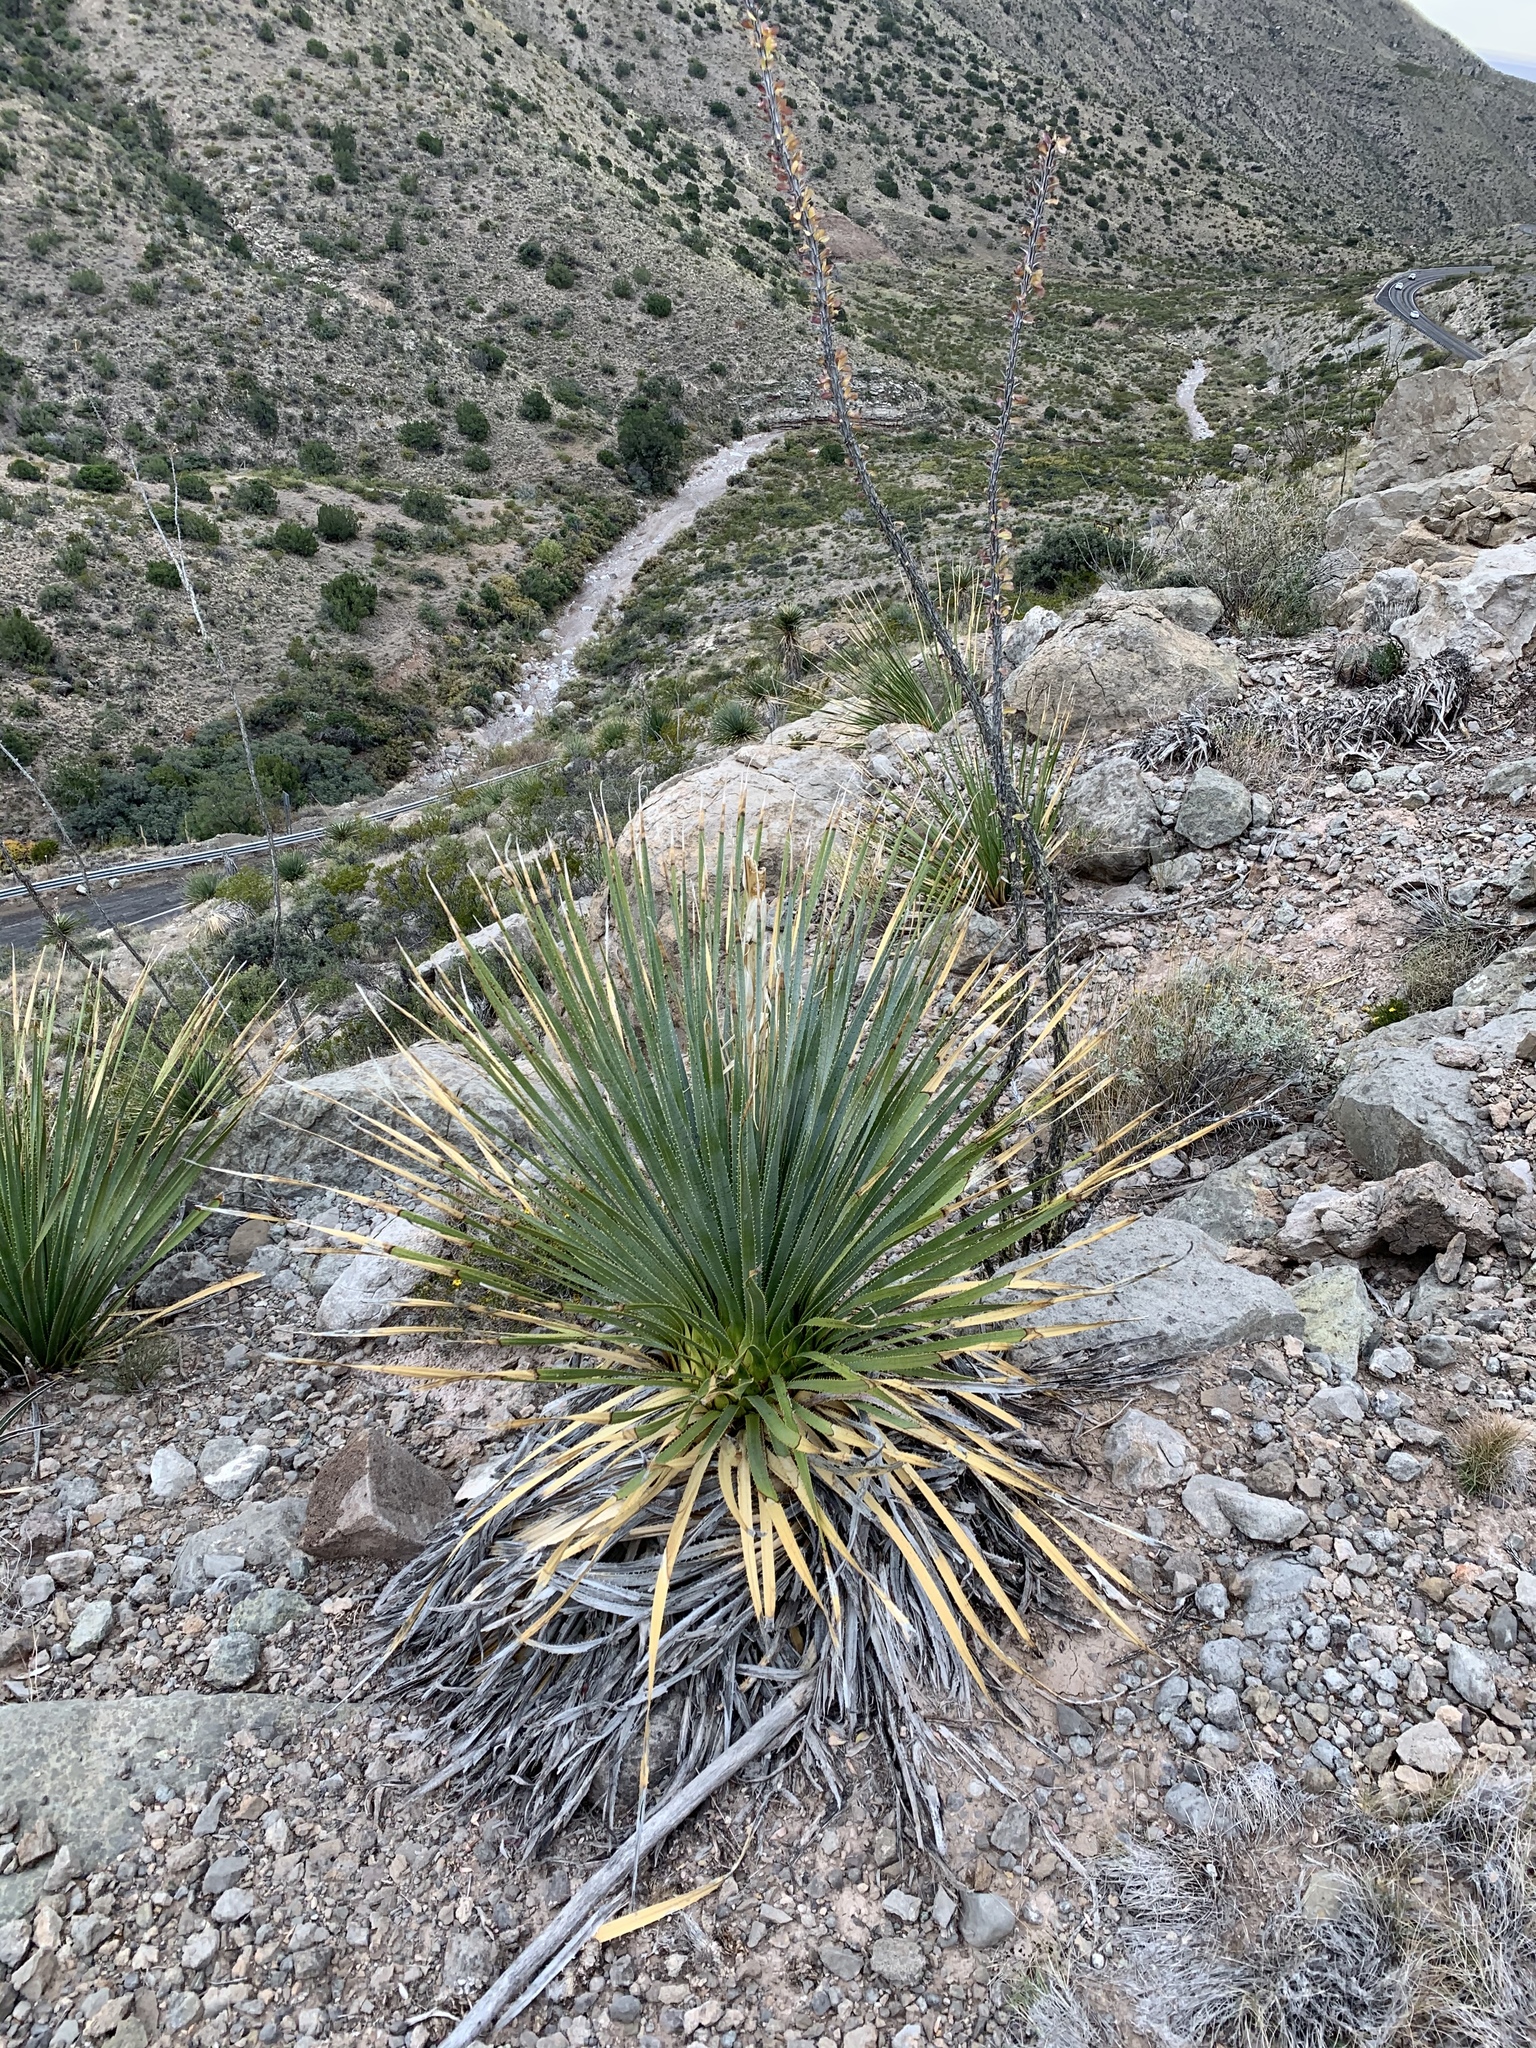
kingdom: Plantae
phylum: Tracheophyta
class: Liliopsida
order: Asparagales
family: Asparagaceae
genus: Dasylirion
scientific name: Dasylirion wheeleri
